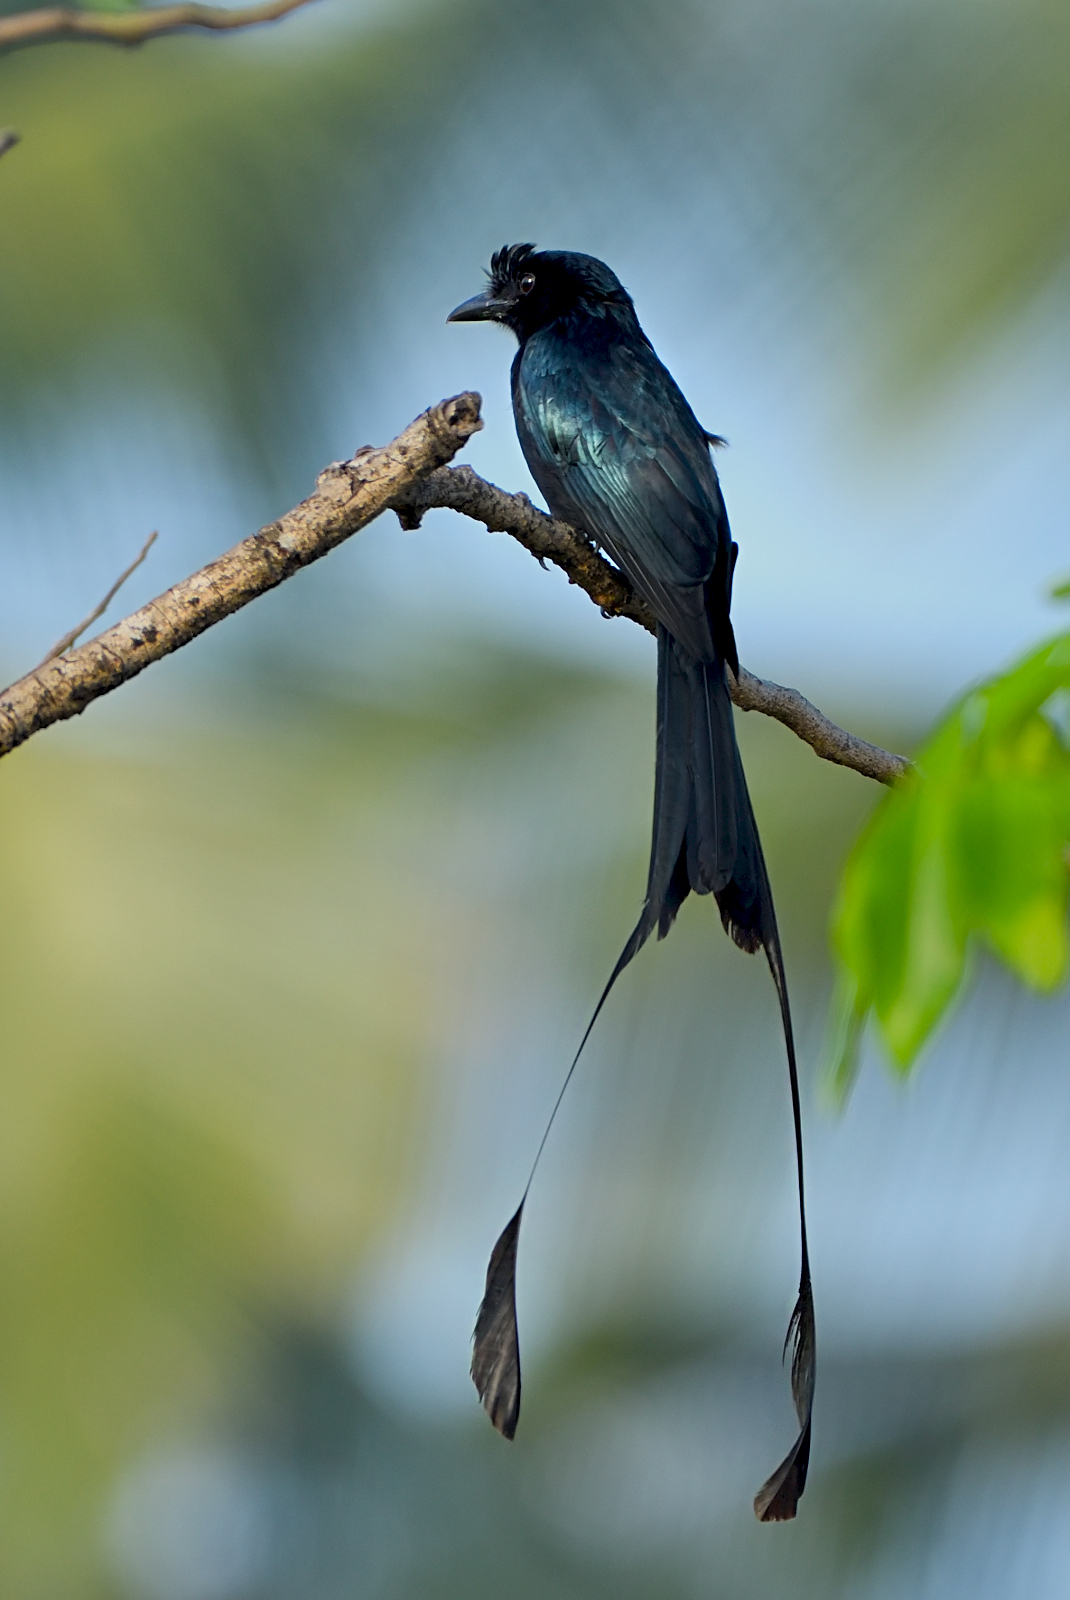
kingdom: Animalia
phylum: Chordata
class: Aves
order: Passeriformes
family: Dicruridae
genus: Dicrurus
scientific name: Dicrurus paradiseus
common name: Greater racket-tailed drongo
